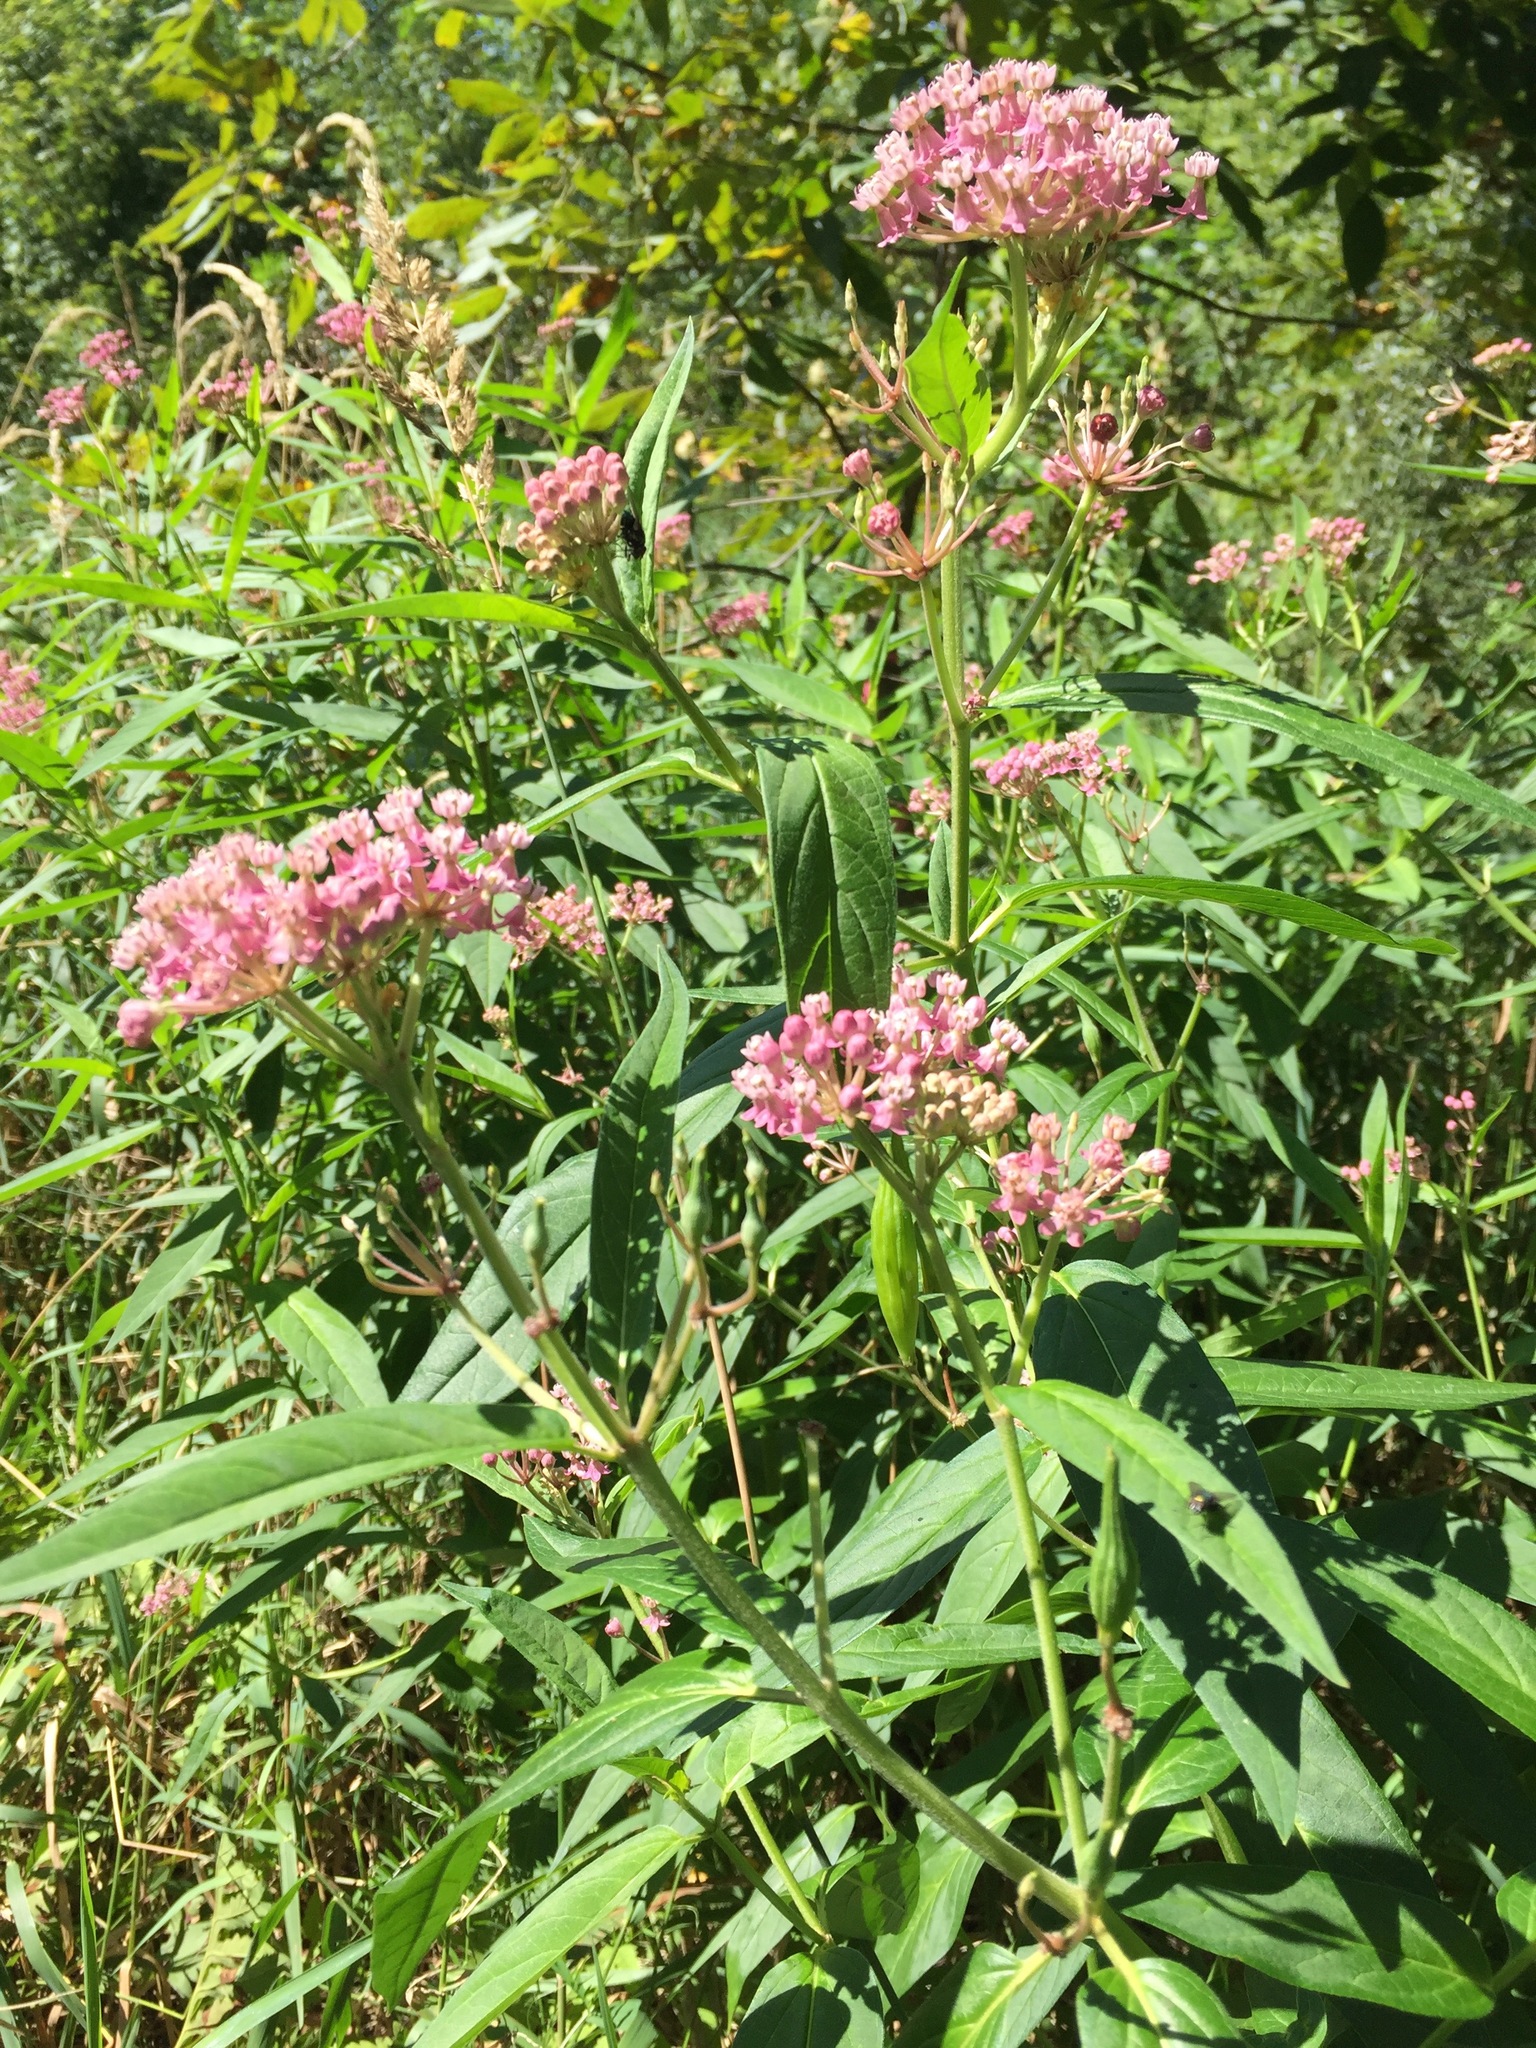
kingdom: Plantae
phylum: Tracheophyta
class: Magnoliopsida
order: Gentianales
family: Apocynaceae
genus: Asclepias
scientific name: Asclepias incarnata
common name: Swamp milkweed
